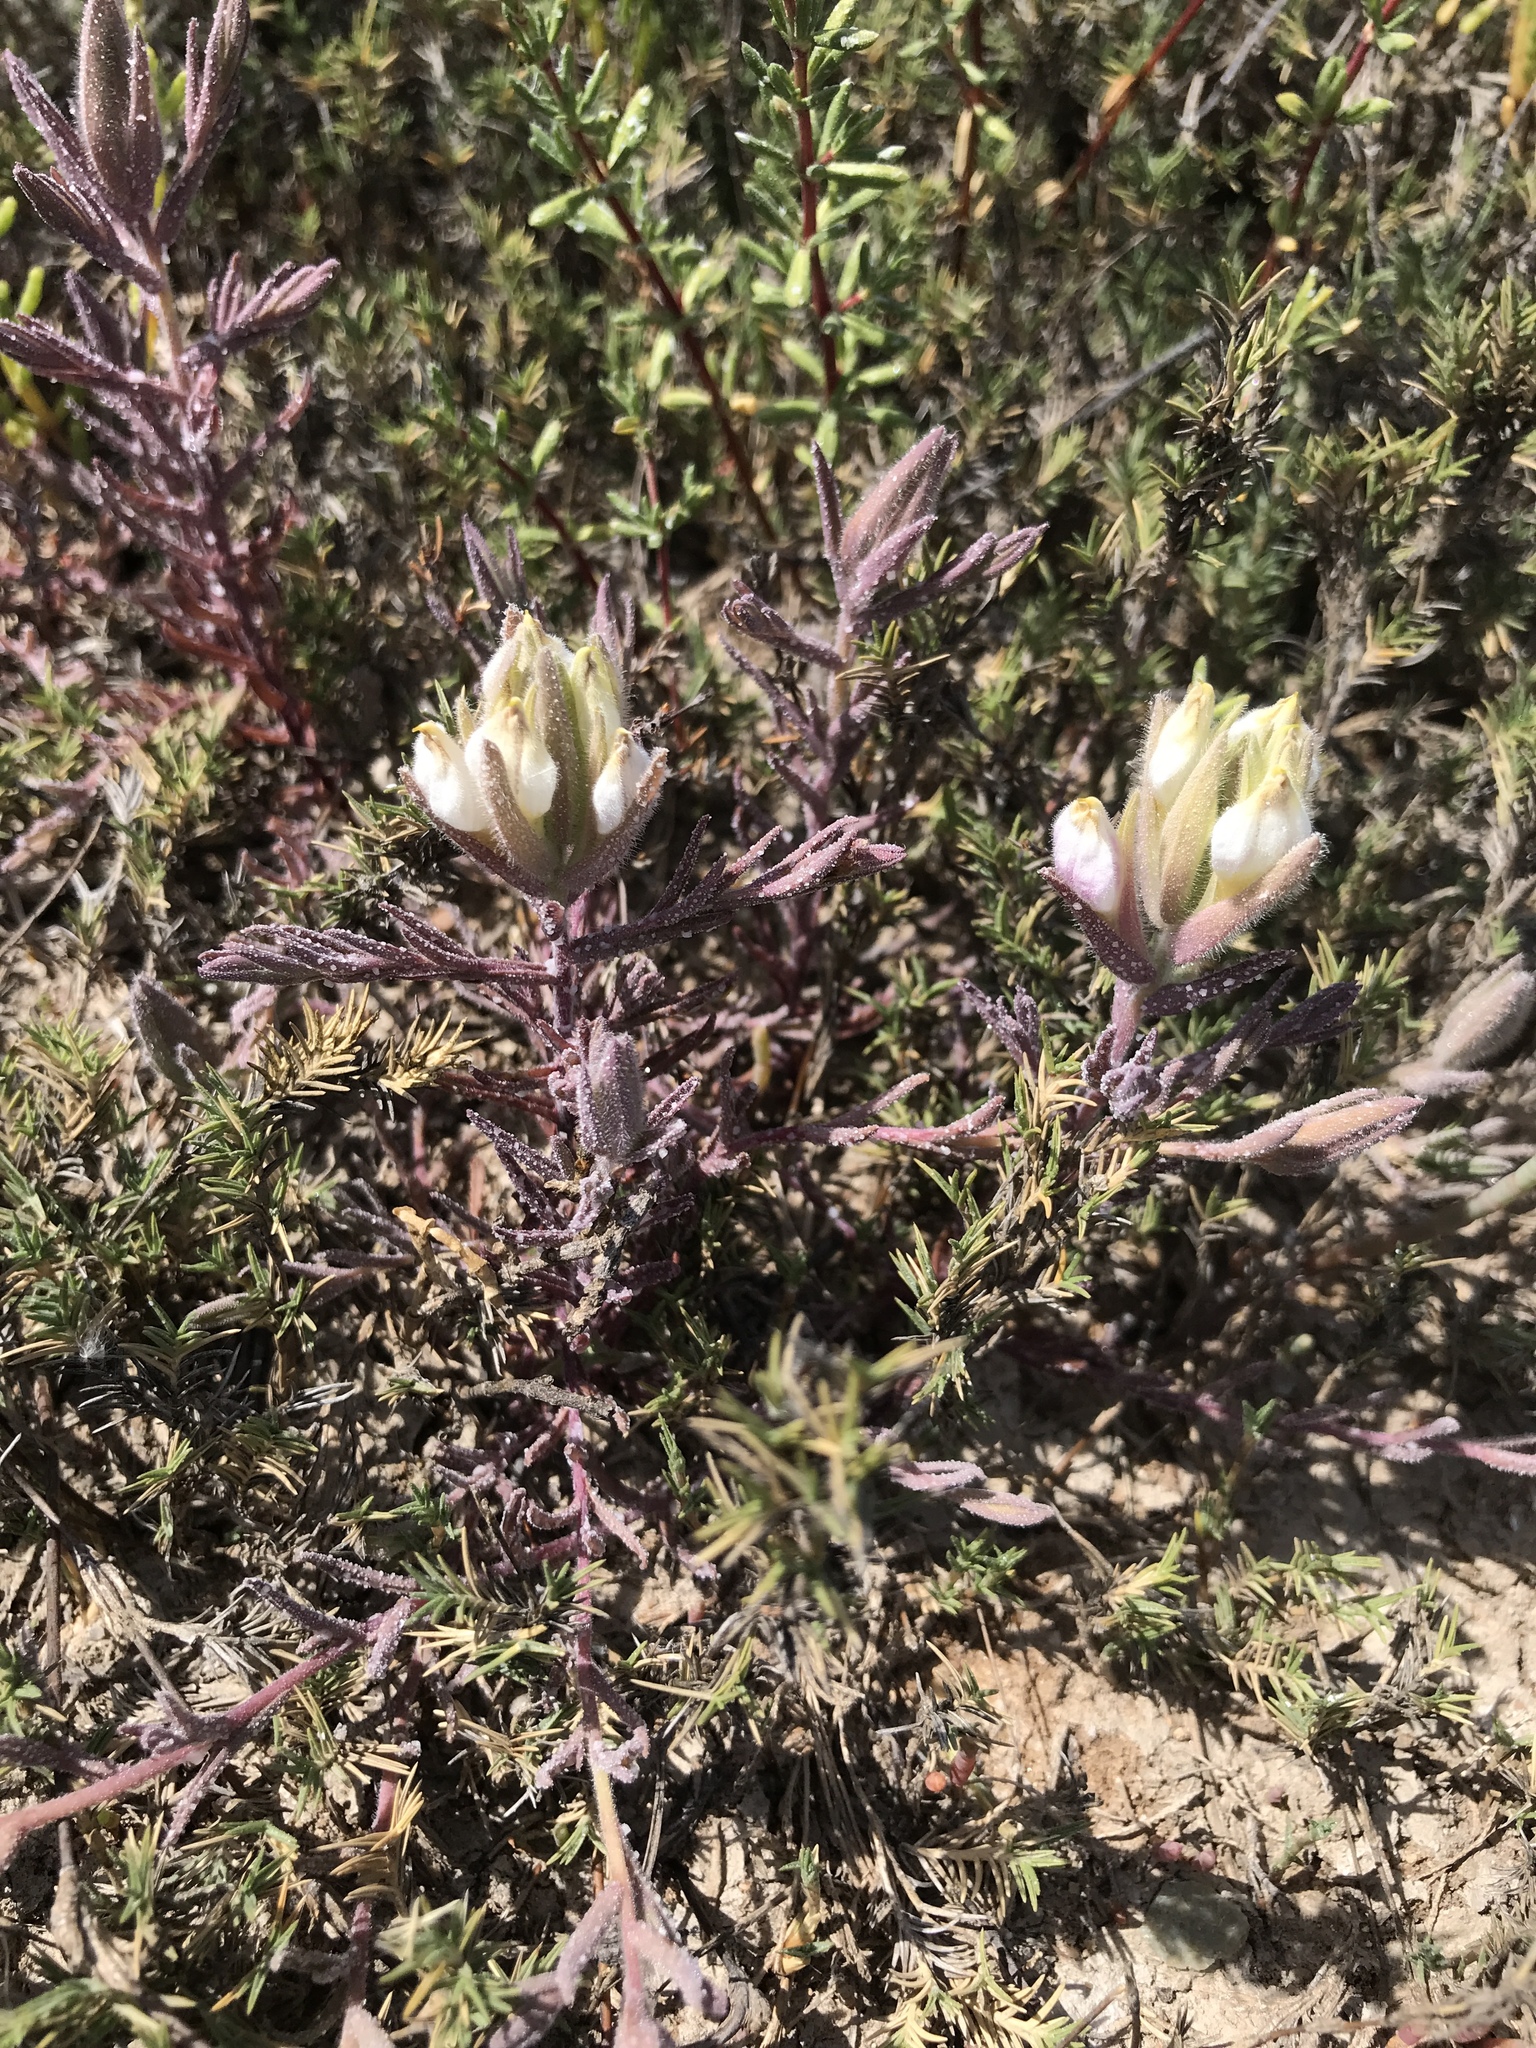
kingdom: Plantae
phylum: Tracheophyta
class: Magnoliopsida
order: Lamiales
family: Orobanchaceae
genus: Chloropyron
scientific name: Chloropyron maritimum
